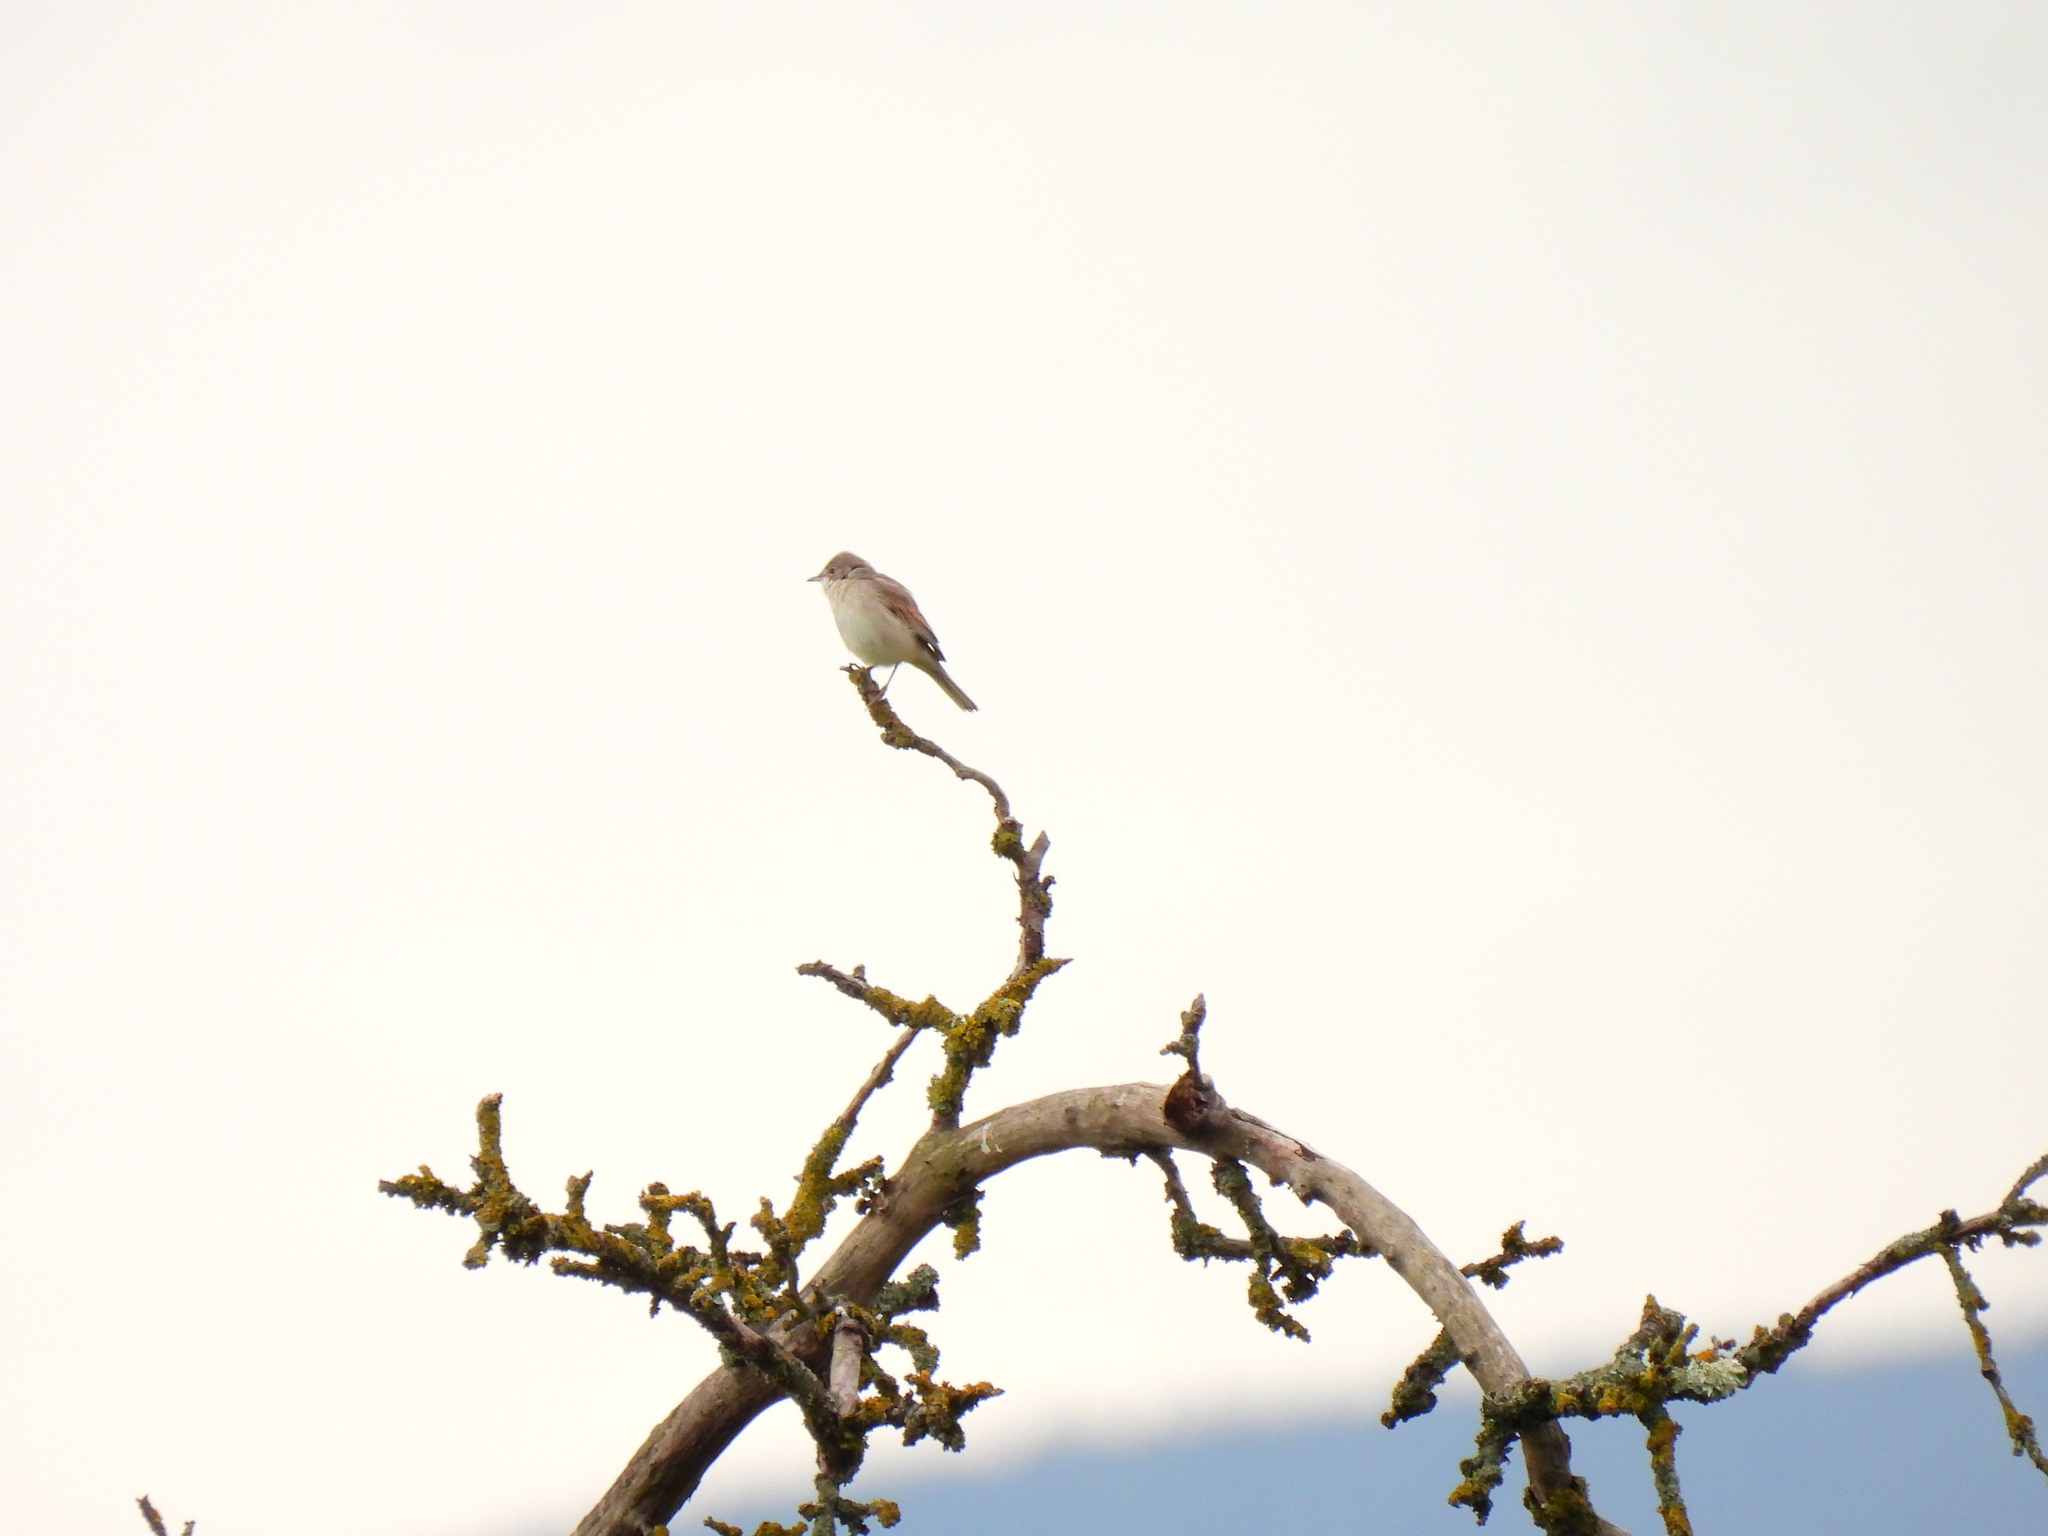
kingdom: Animalia
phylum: Chordata
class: Aves
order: Passeriformes
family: Sylviidae
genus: Sylvia
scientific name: Sylvia communis
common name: Common whitethroat
